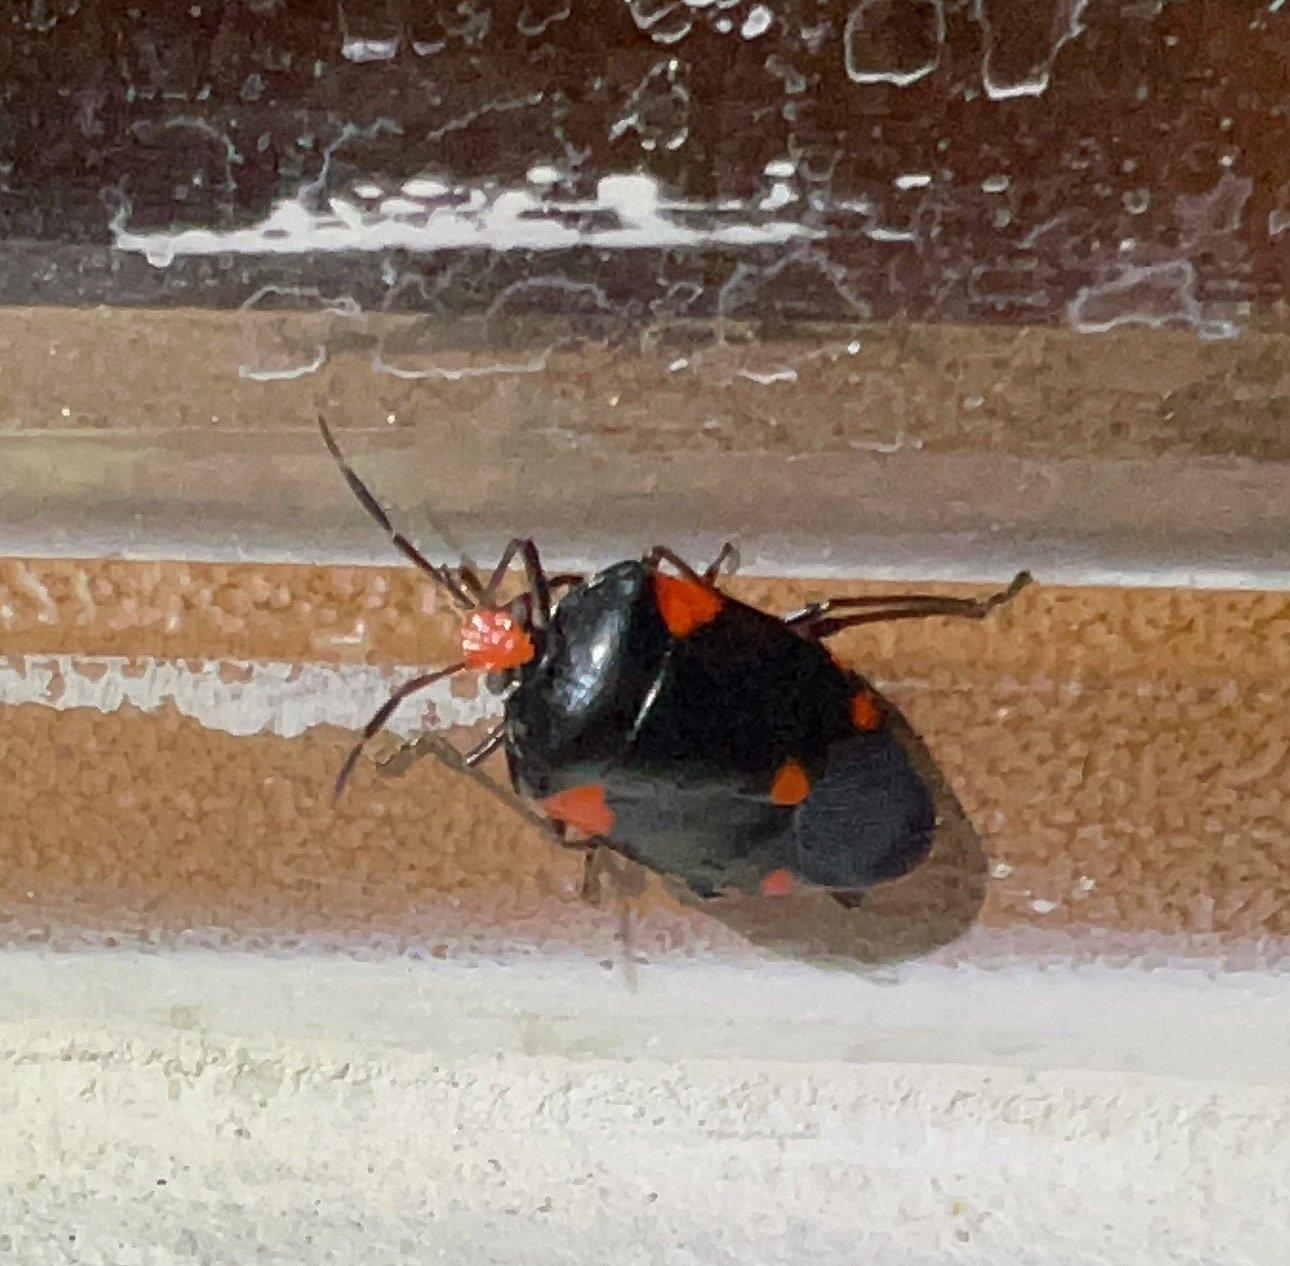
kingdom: Animalia
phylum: Arthropoda
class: Insecta
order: Hemiptera
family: Pentatomidae
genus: Arocera
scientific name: Arocera elongata
